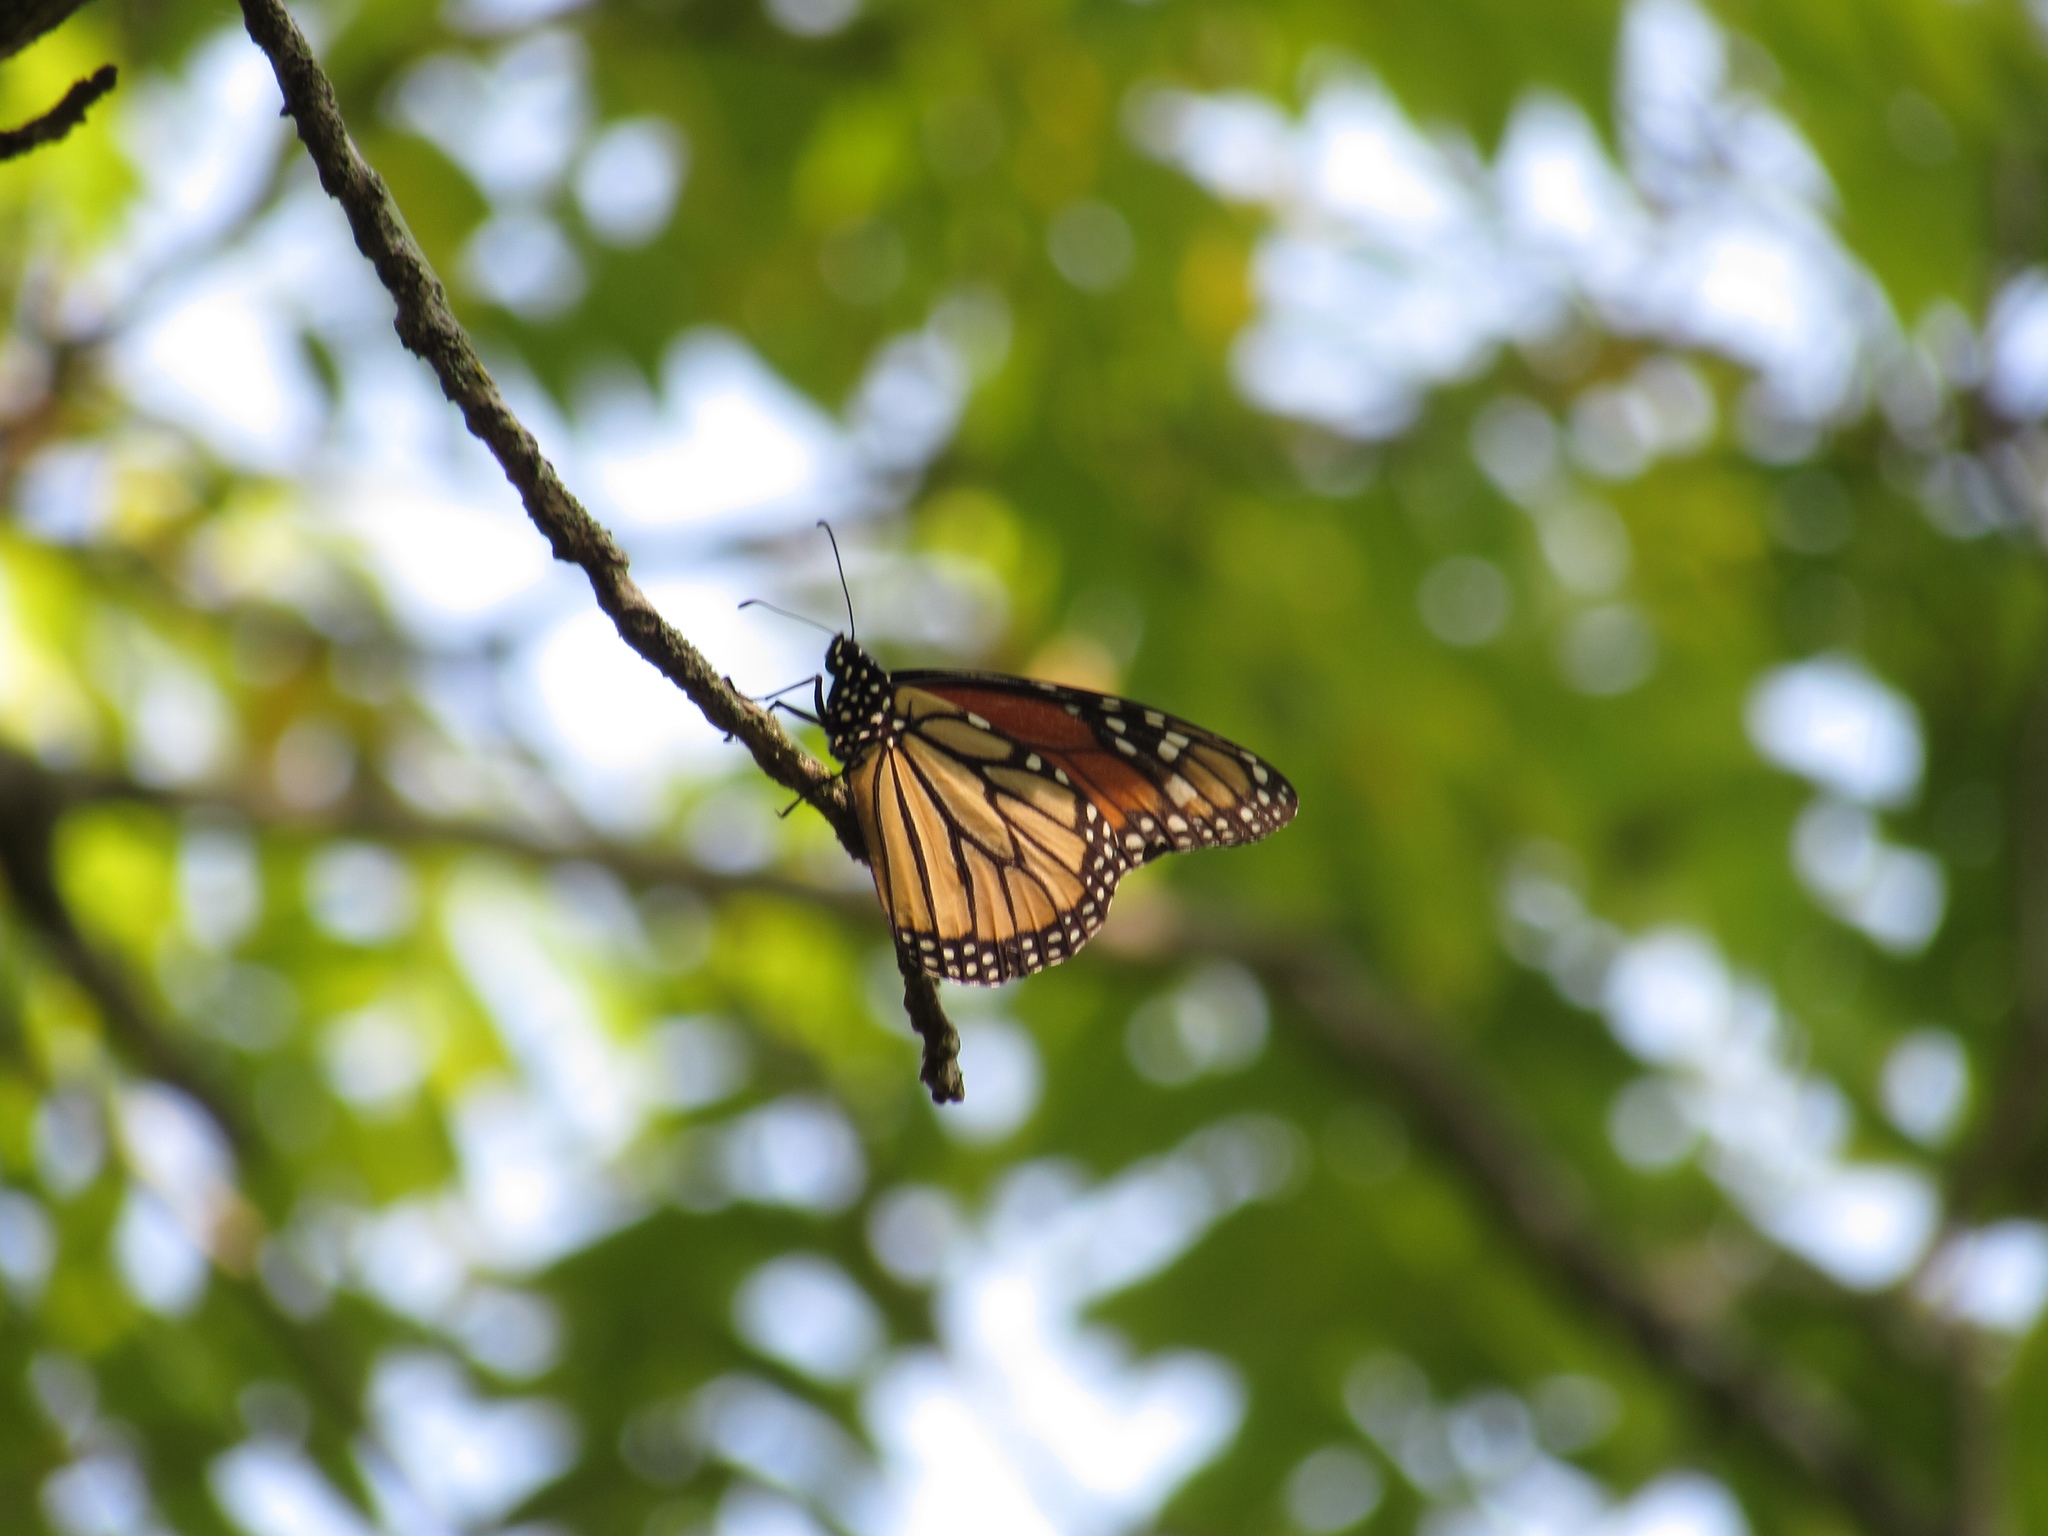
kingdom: Animalia
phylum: Arthropoda
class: Insecta
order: Lepidoptera
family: Nymphalidae
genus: Danaus
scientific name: Danaus plexippus
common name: Monarch
